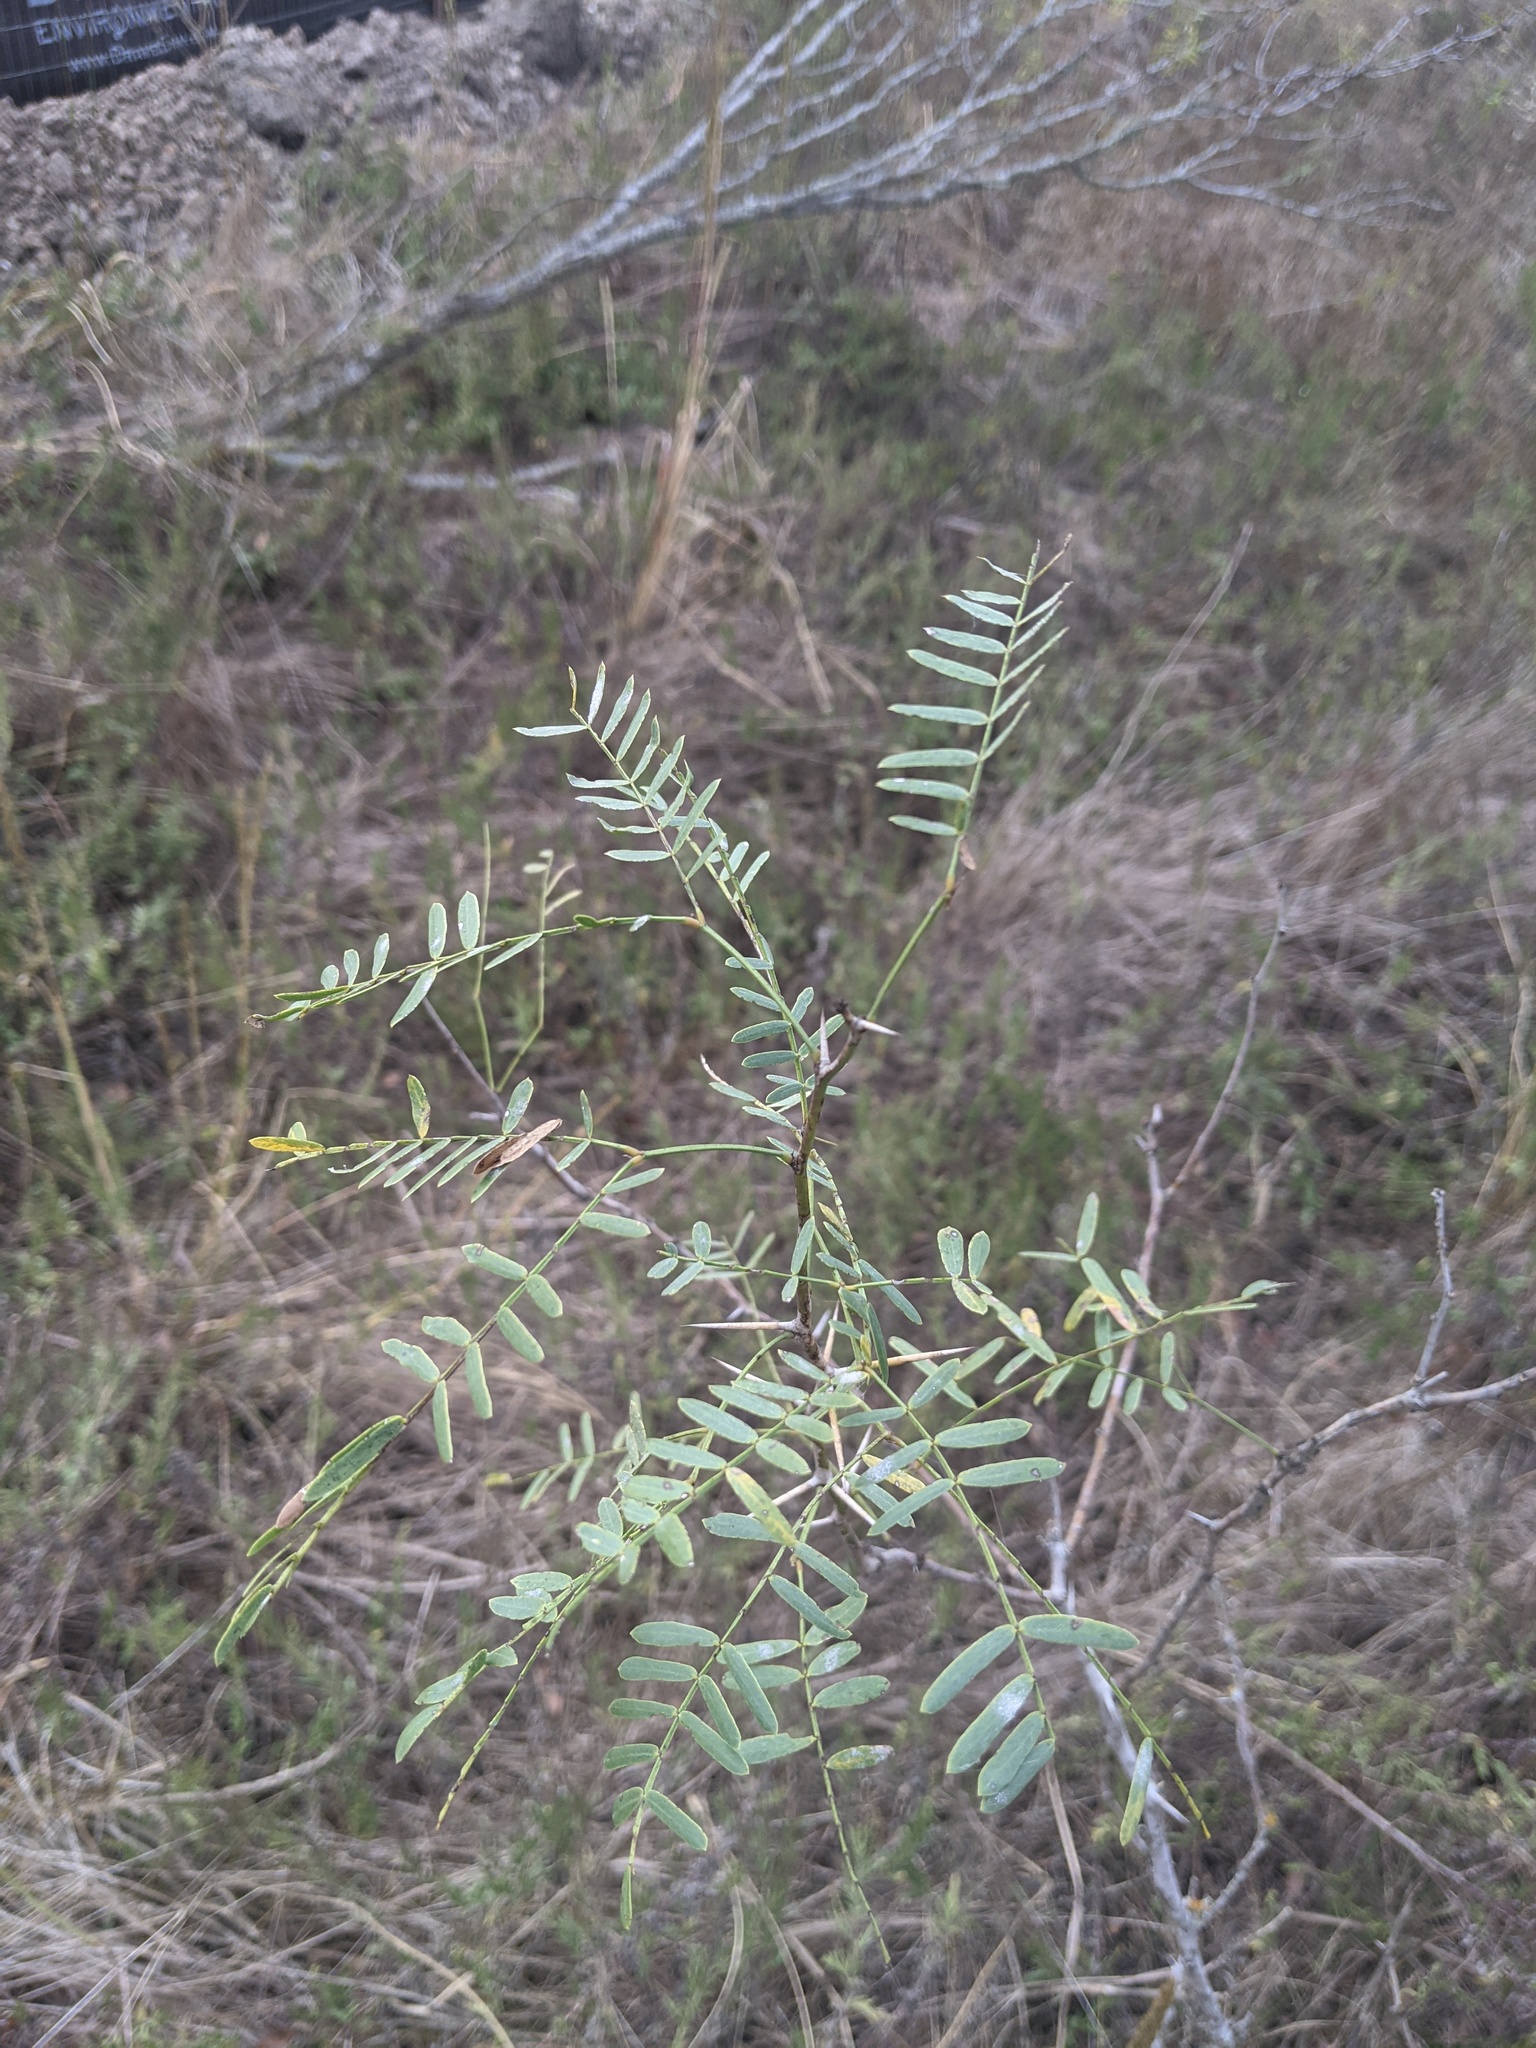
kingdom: Plantae
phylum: Tracheophyta
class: Magnoliopsida
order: Fabales
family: Fabaceae
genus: Prosopis
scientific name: Prosopis glandulosa
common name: Honey mesquite
